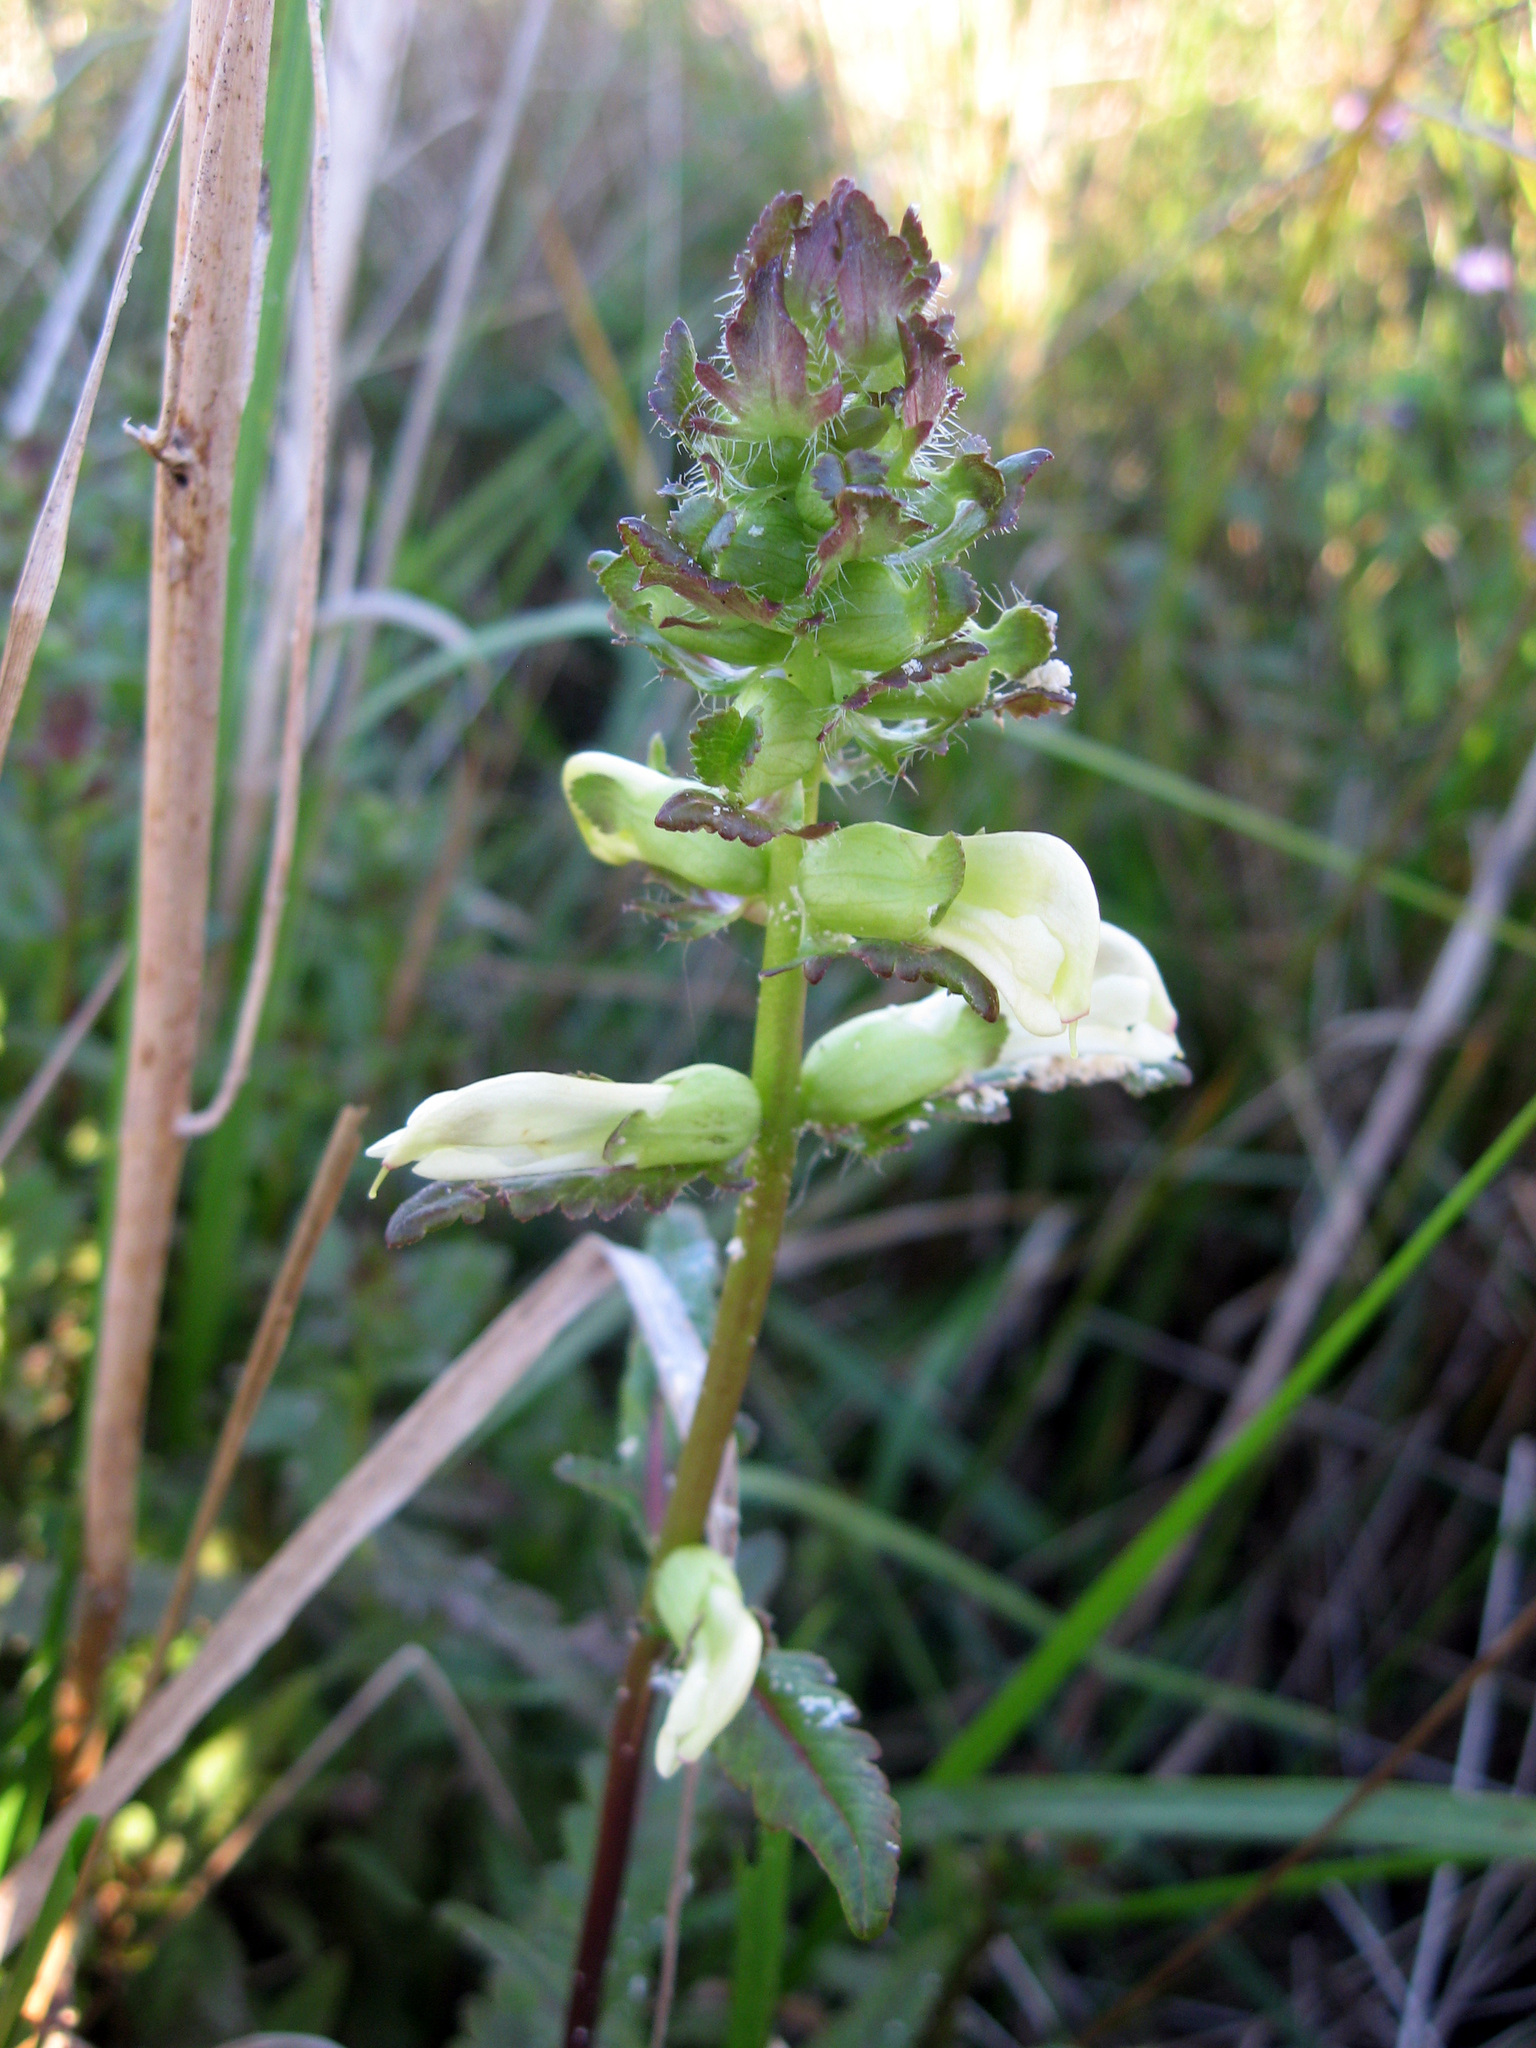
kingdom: Plantae
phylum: Tracheophyta
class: Magnoliopsida
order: Lamiales
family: Orobanchaceae
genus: Pedicularis
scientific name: Pedicularis lanceolata
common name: Swamp lousewort
